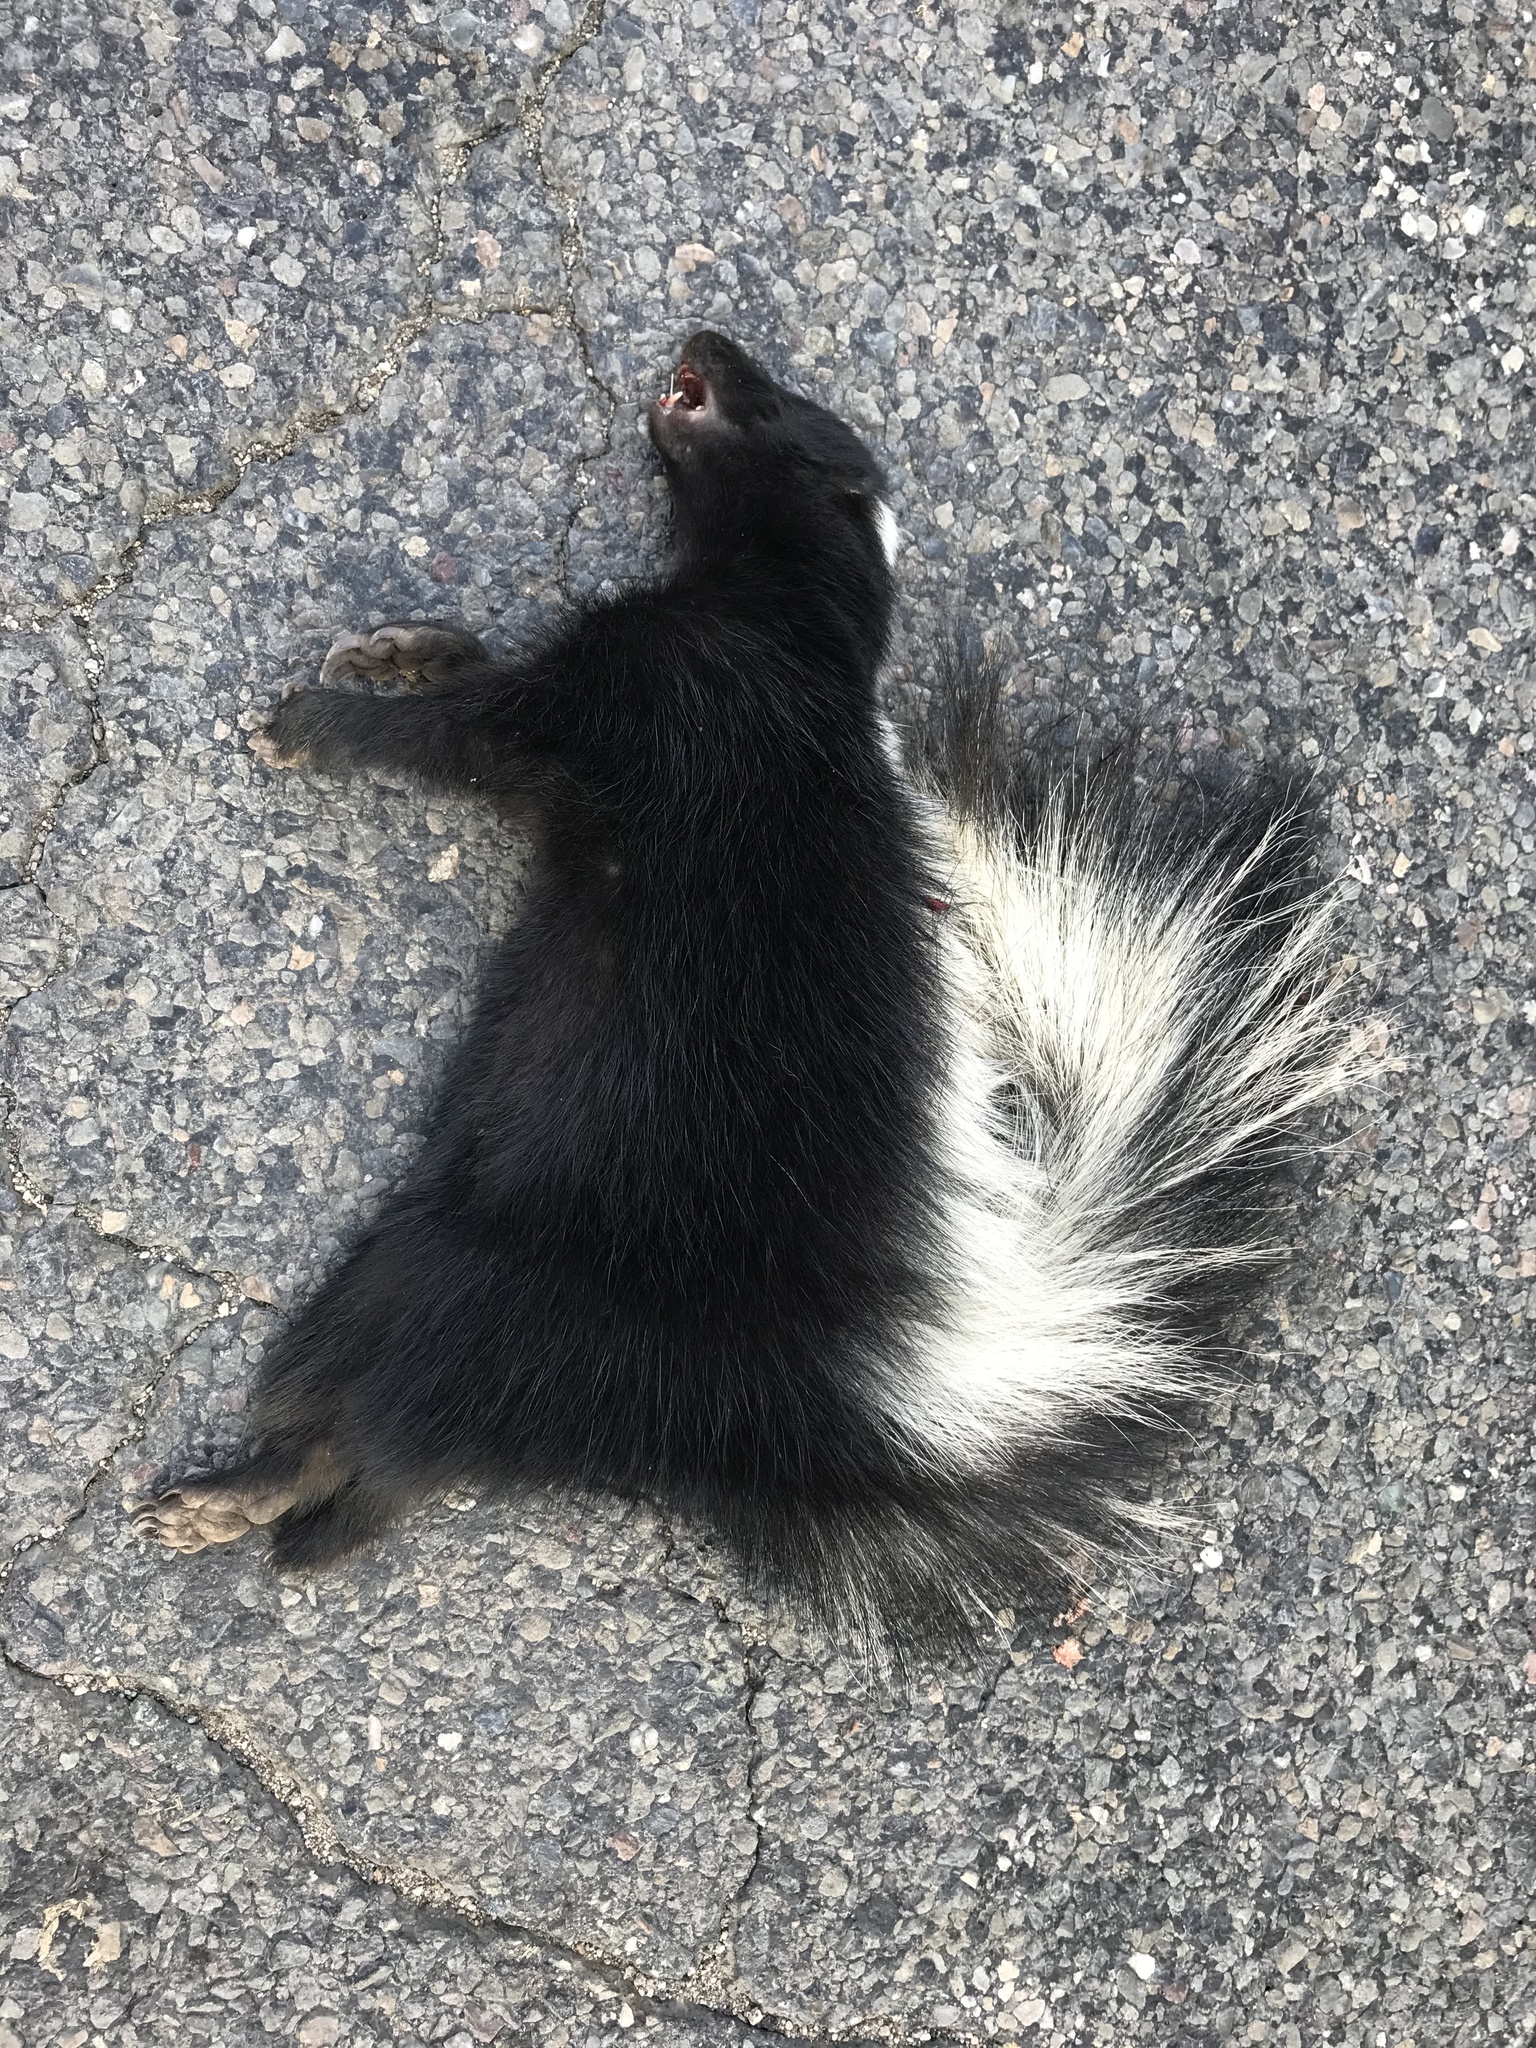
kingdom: Animalia
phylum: Chordata
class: Mammalia
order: Carnivora
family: Mephitidae
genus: Mephitis
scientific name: Mephitis mephitis
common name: Striped skunk
